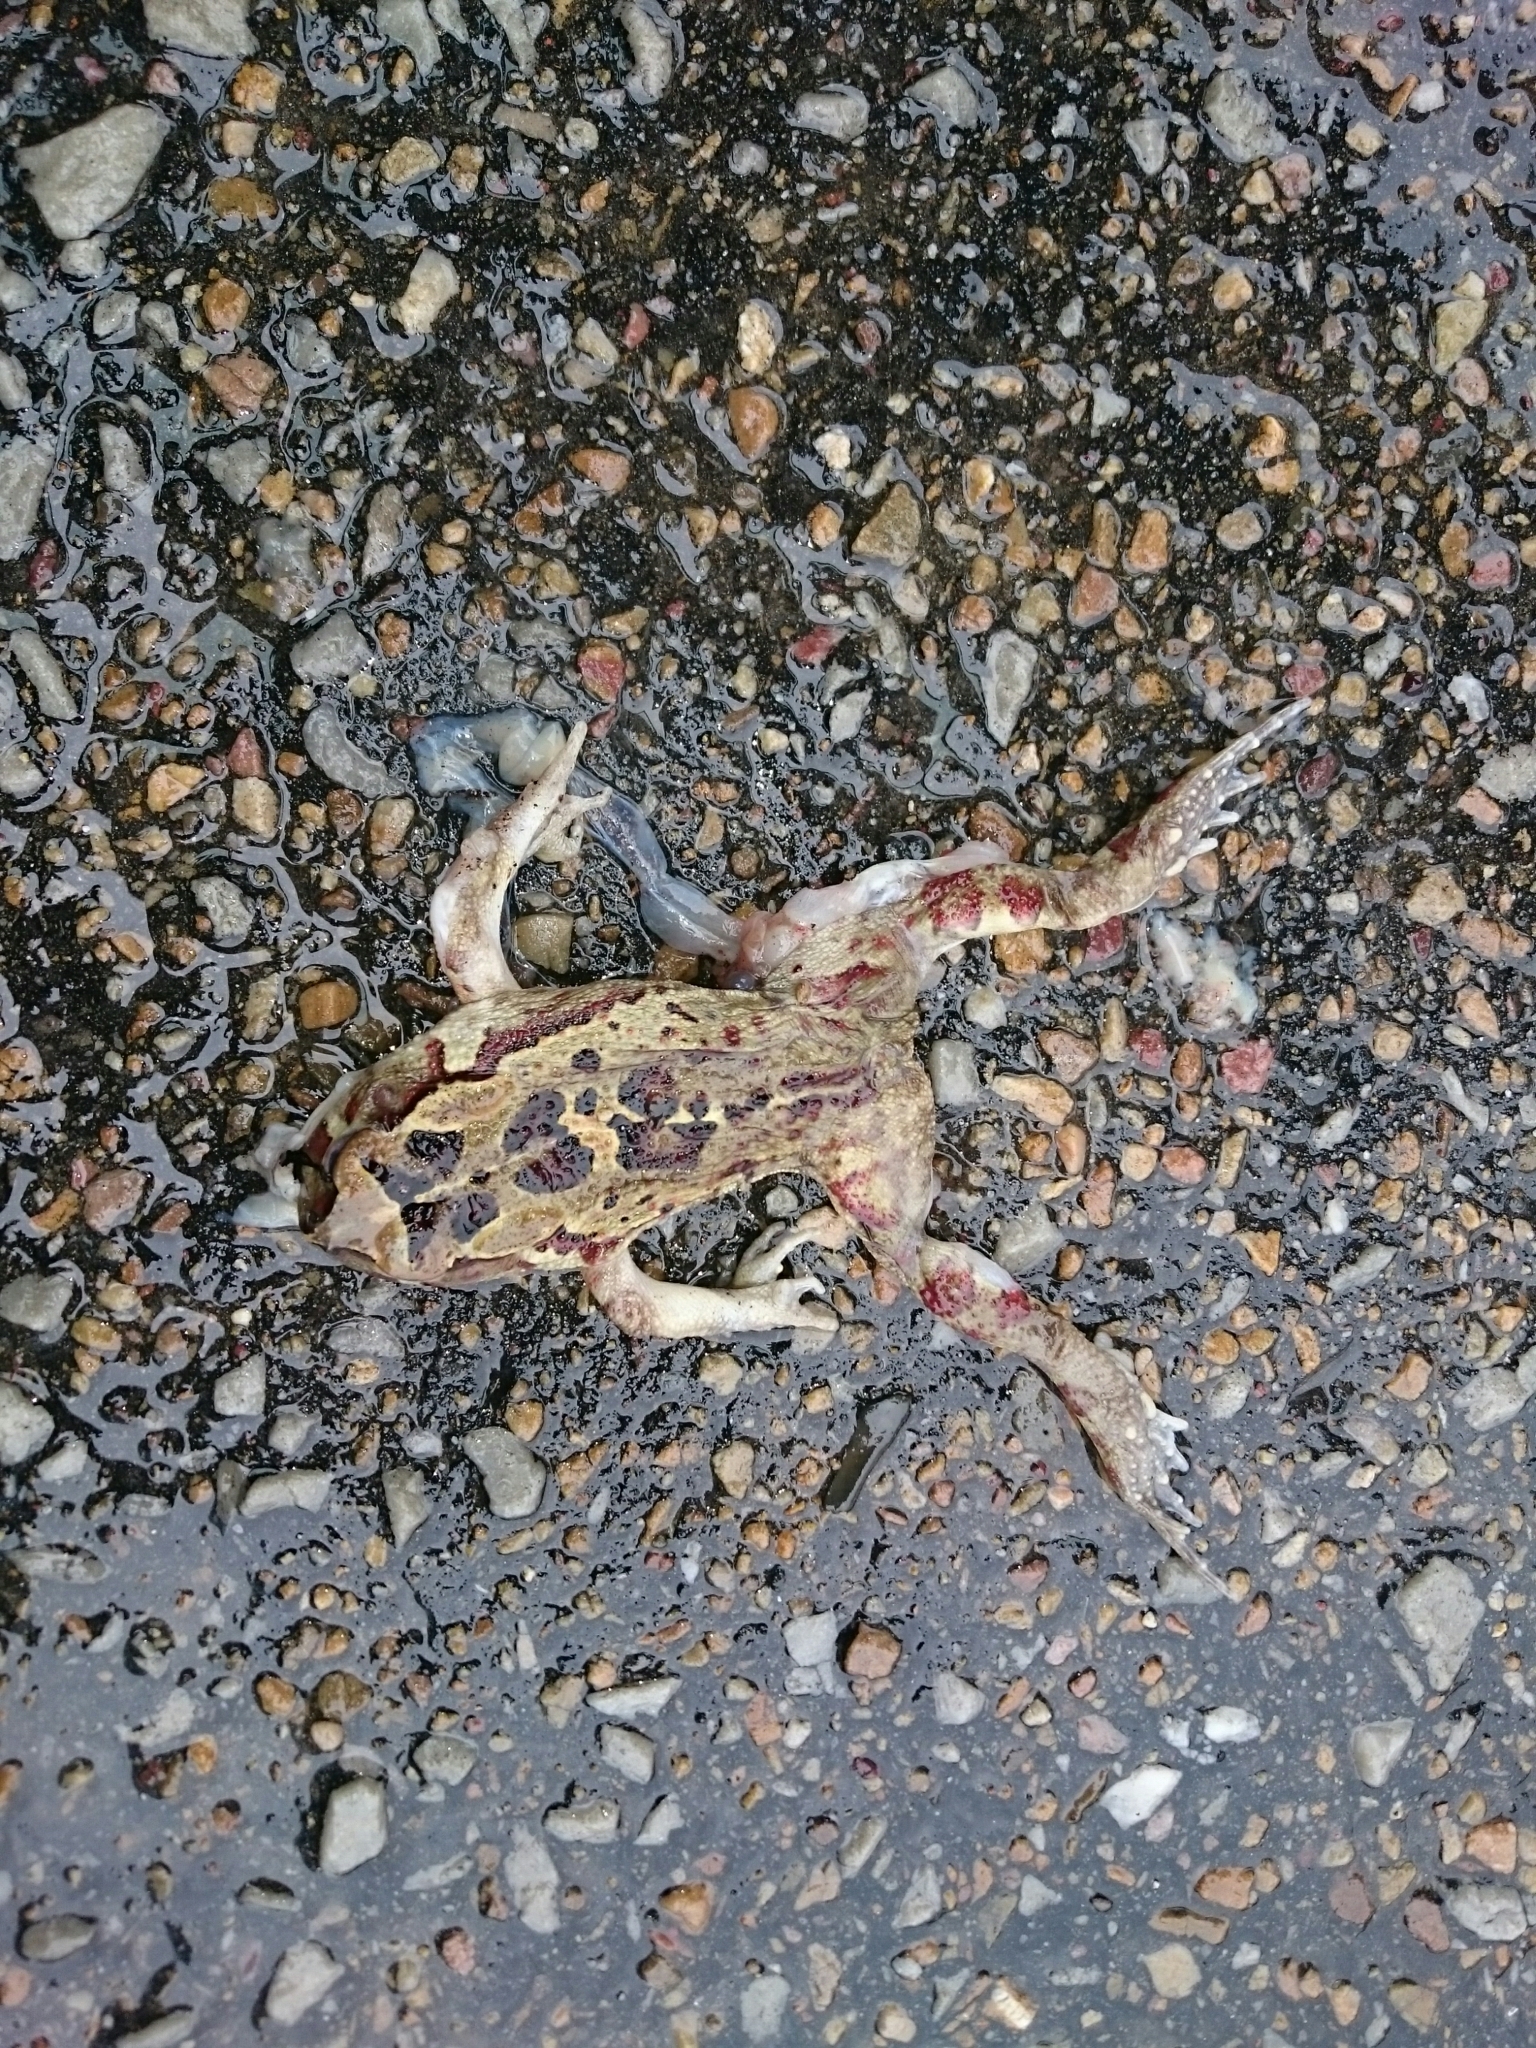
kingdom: Animalia
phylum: Chordata
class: Amphibia
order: Anura
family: Bufonidae
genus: Sclerophrys
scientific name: Sclerophrys pardalis
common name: Eastern leopard toad
